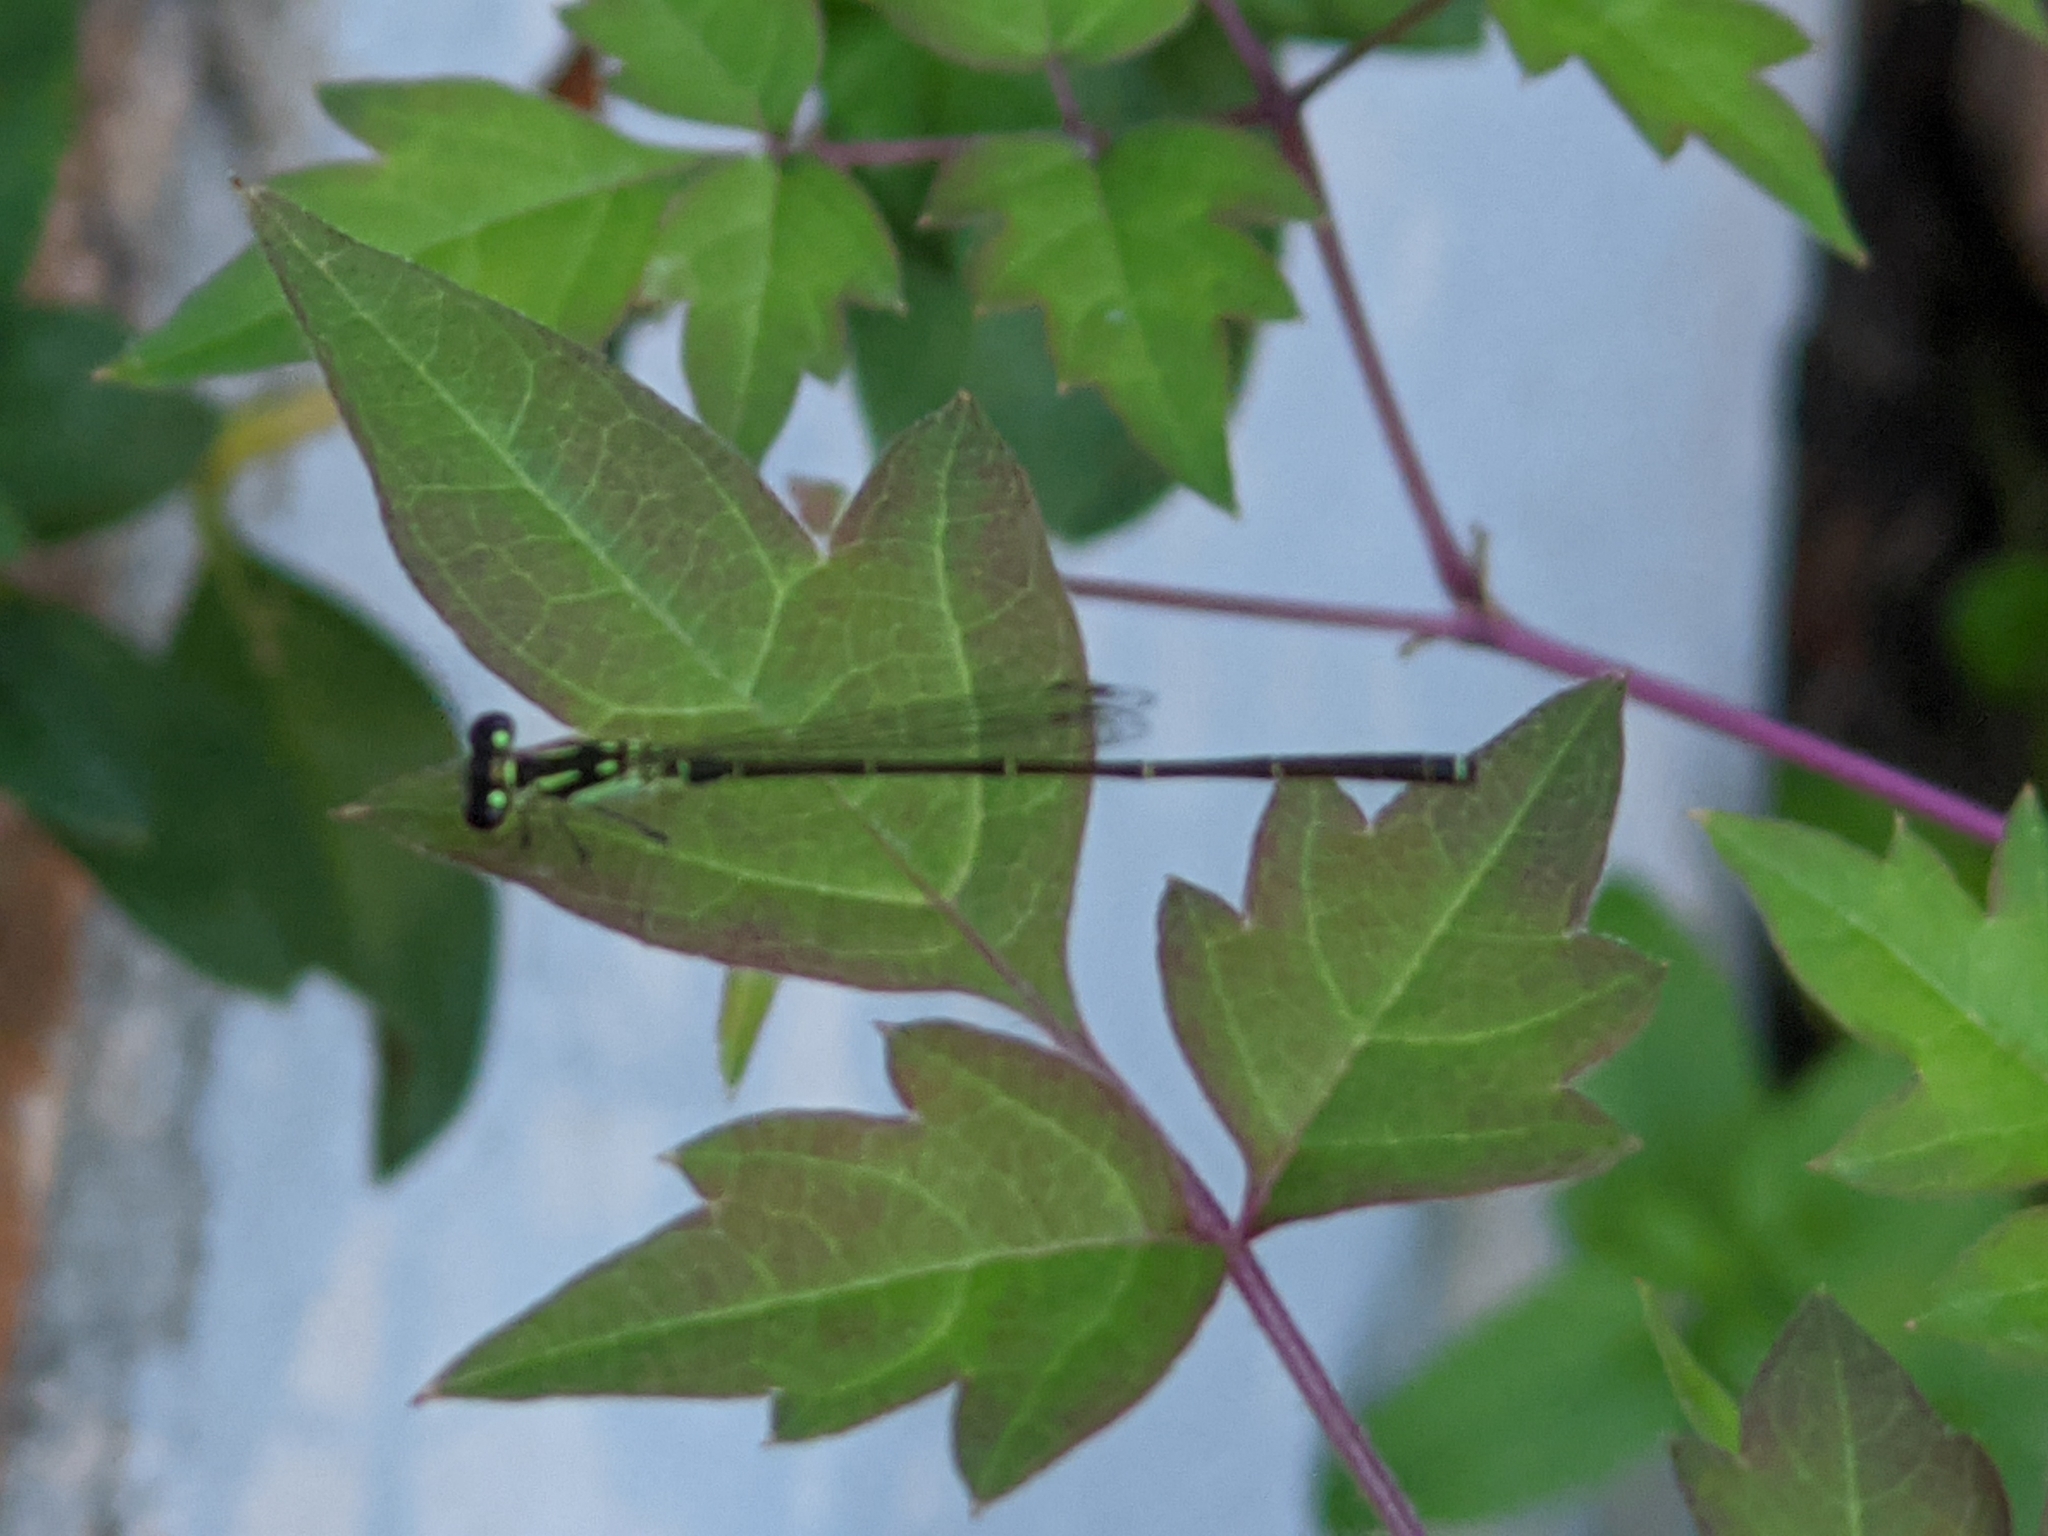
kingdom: Animalia
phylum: Arthropoda
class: Insecta
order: Odonata
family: Coenagrionidae
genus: Ischnura
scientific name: Ischnura posita
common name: Fragile forktail
